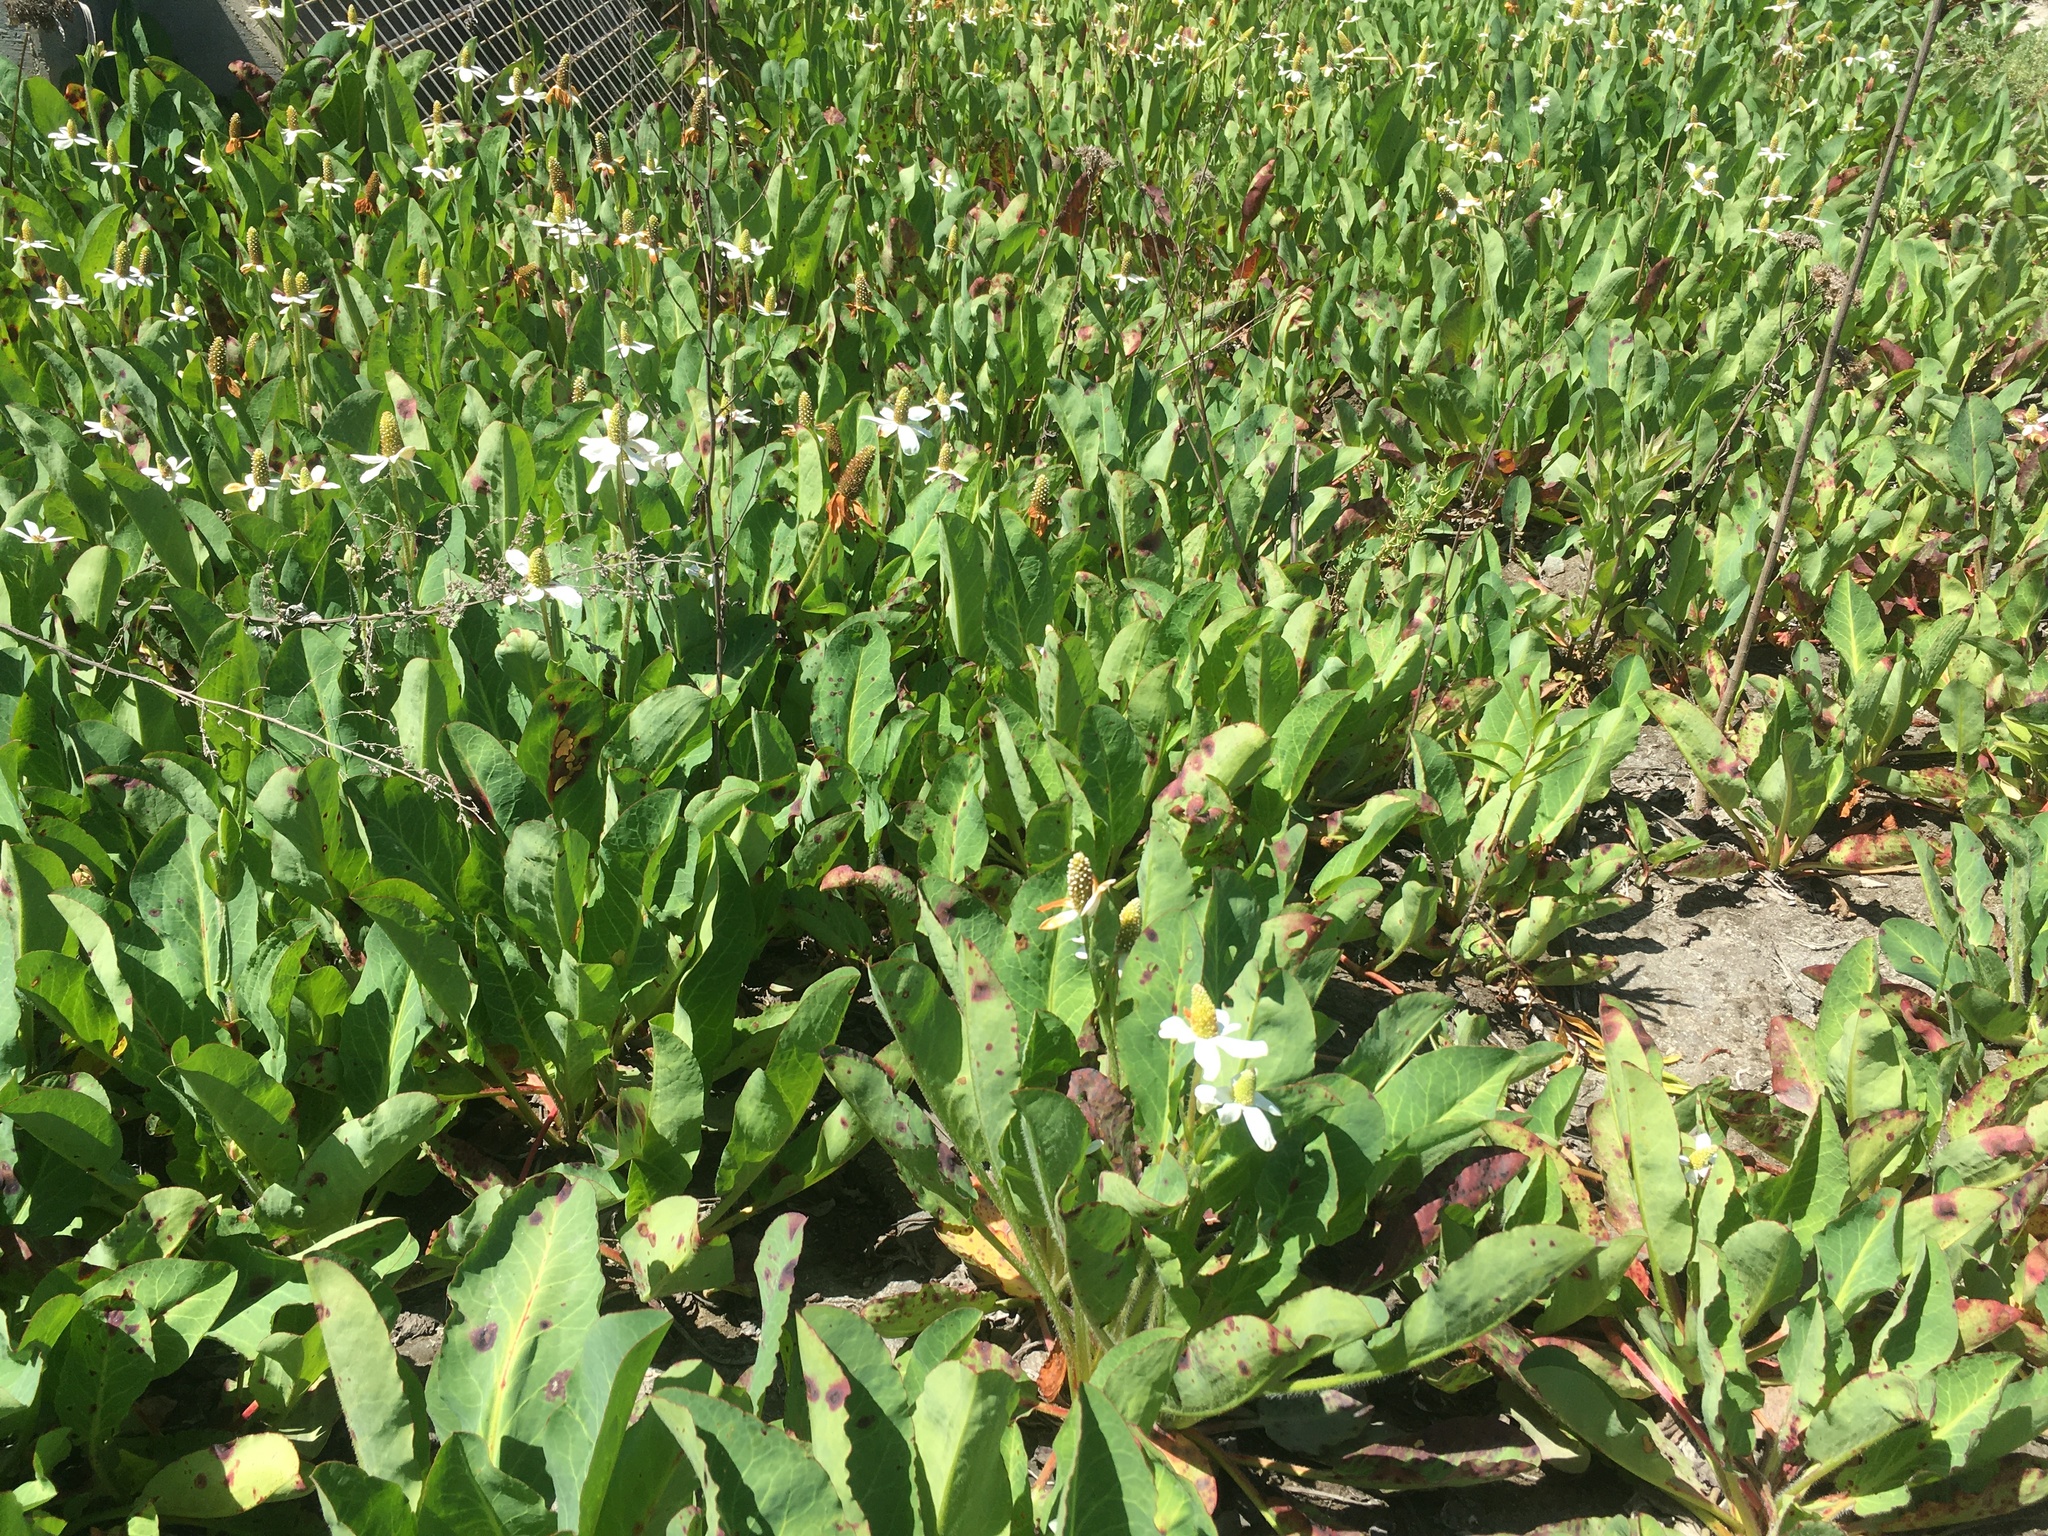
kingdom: Plantae
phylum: Tracheophyta
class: Magnoliopsida
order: Piperales
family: Saururaceae
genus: Anemopsis
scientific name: Anemopsis californica
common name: Apache-beads
